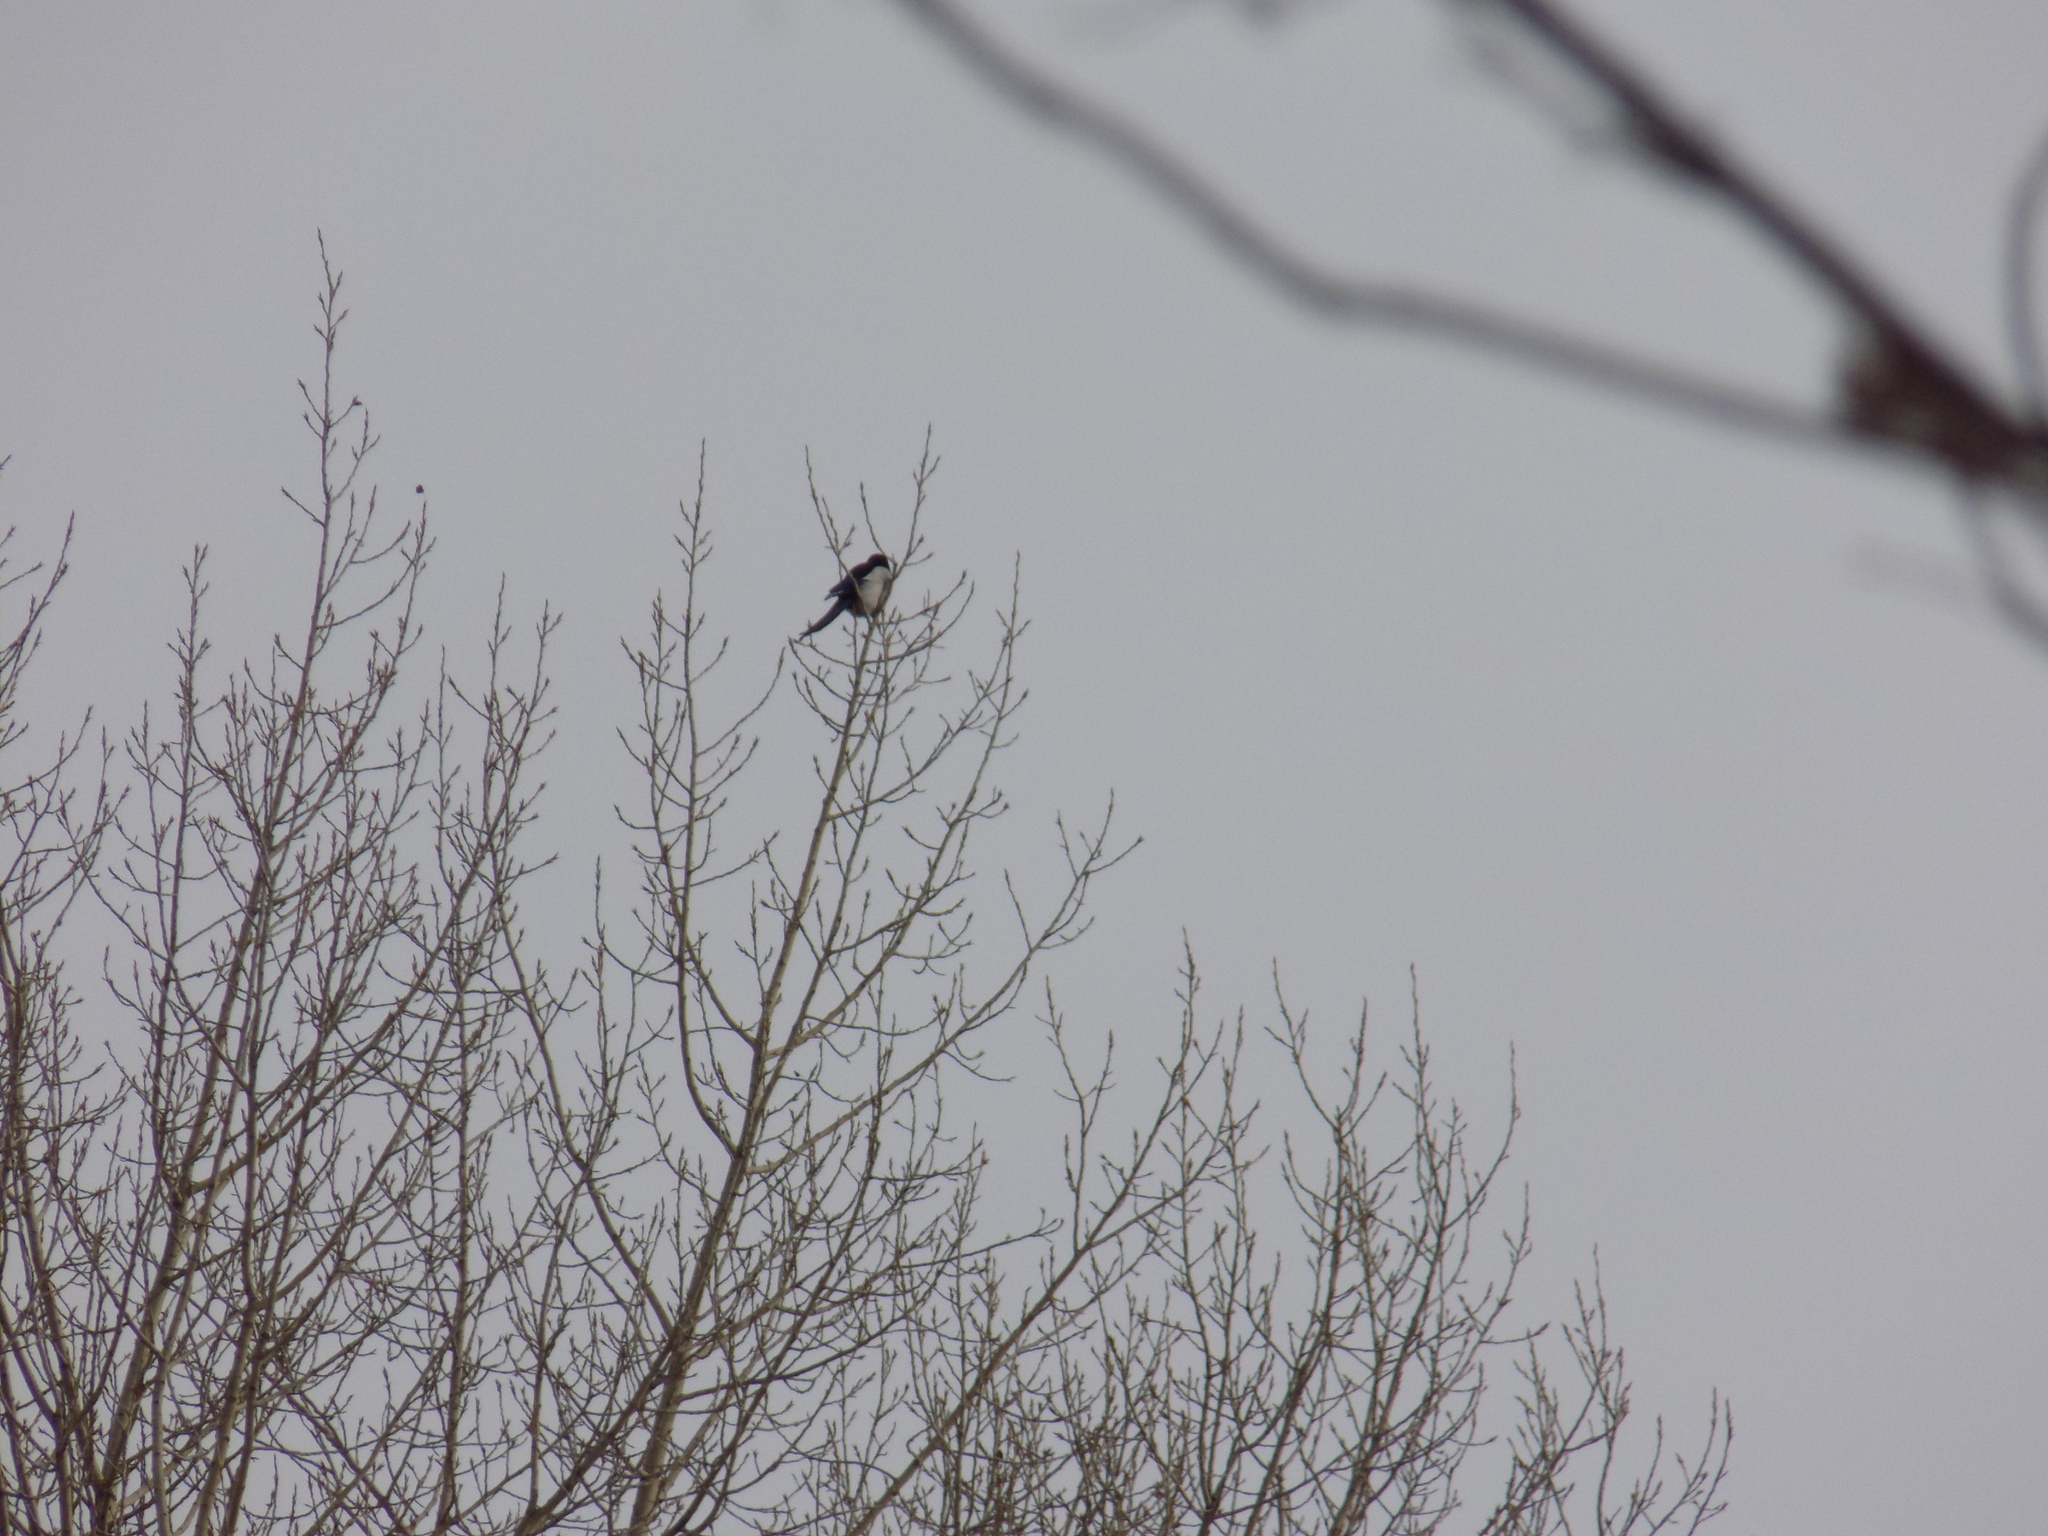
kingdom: Animalia
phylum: Chordata
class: Aves
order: Passeriformes
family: Corvidae
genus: Pica
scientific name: Pica pica
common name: Eurasian magpie
